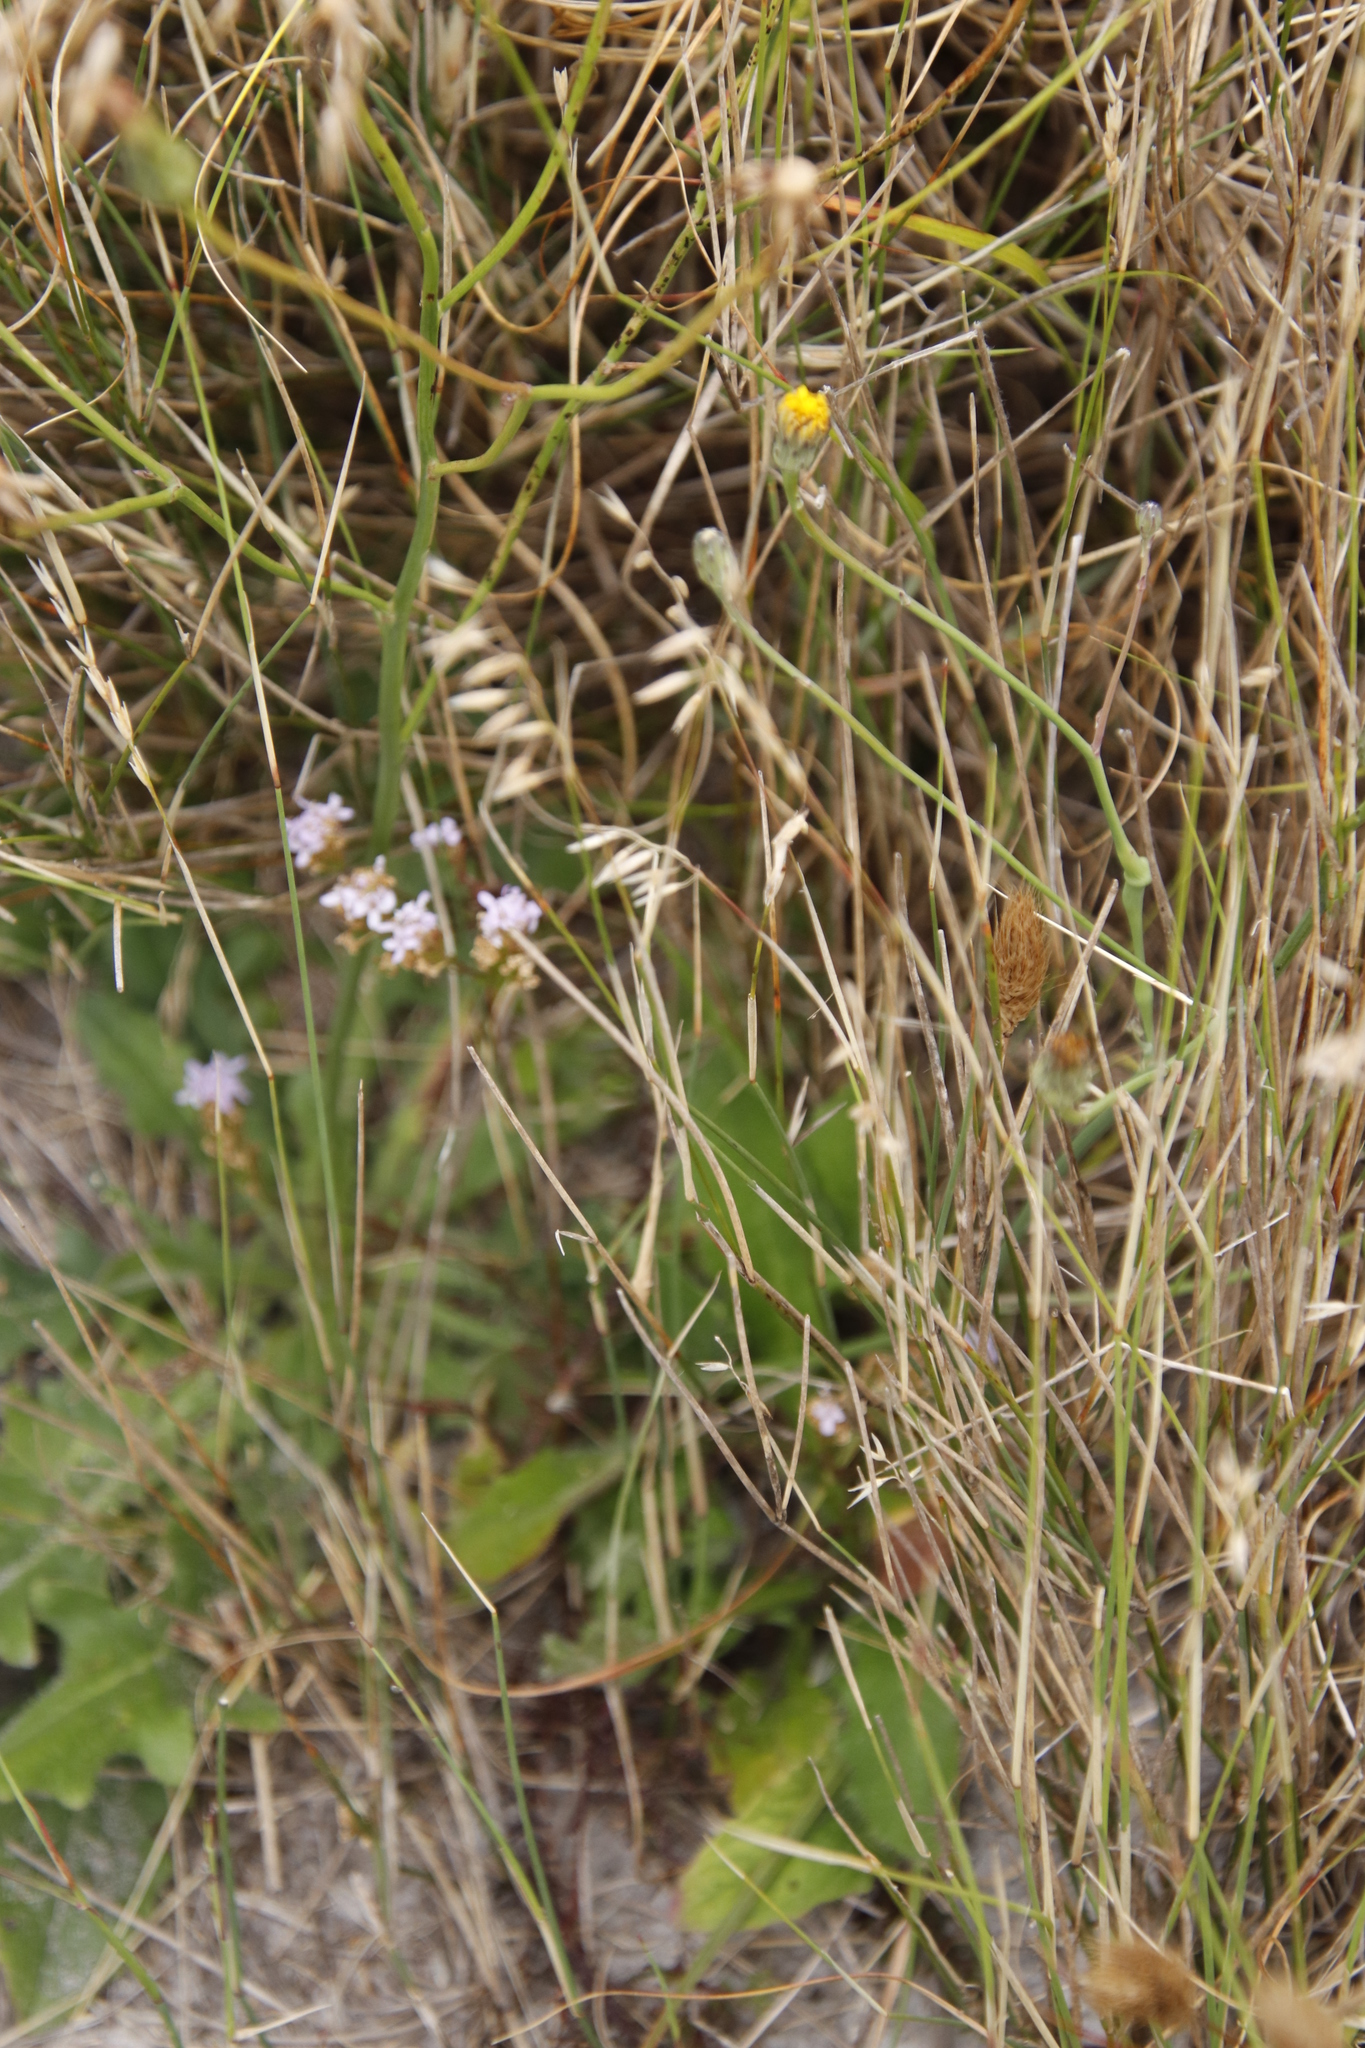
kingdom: Plantae
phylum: Tracheophyta
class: Magnoliopsida
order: Lamiales
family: Scrophulariaceae
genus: Pseudoselago
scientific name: Pseudoselago spuria
